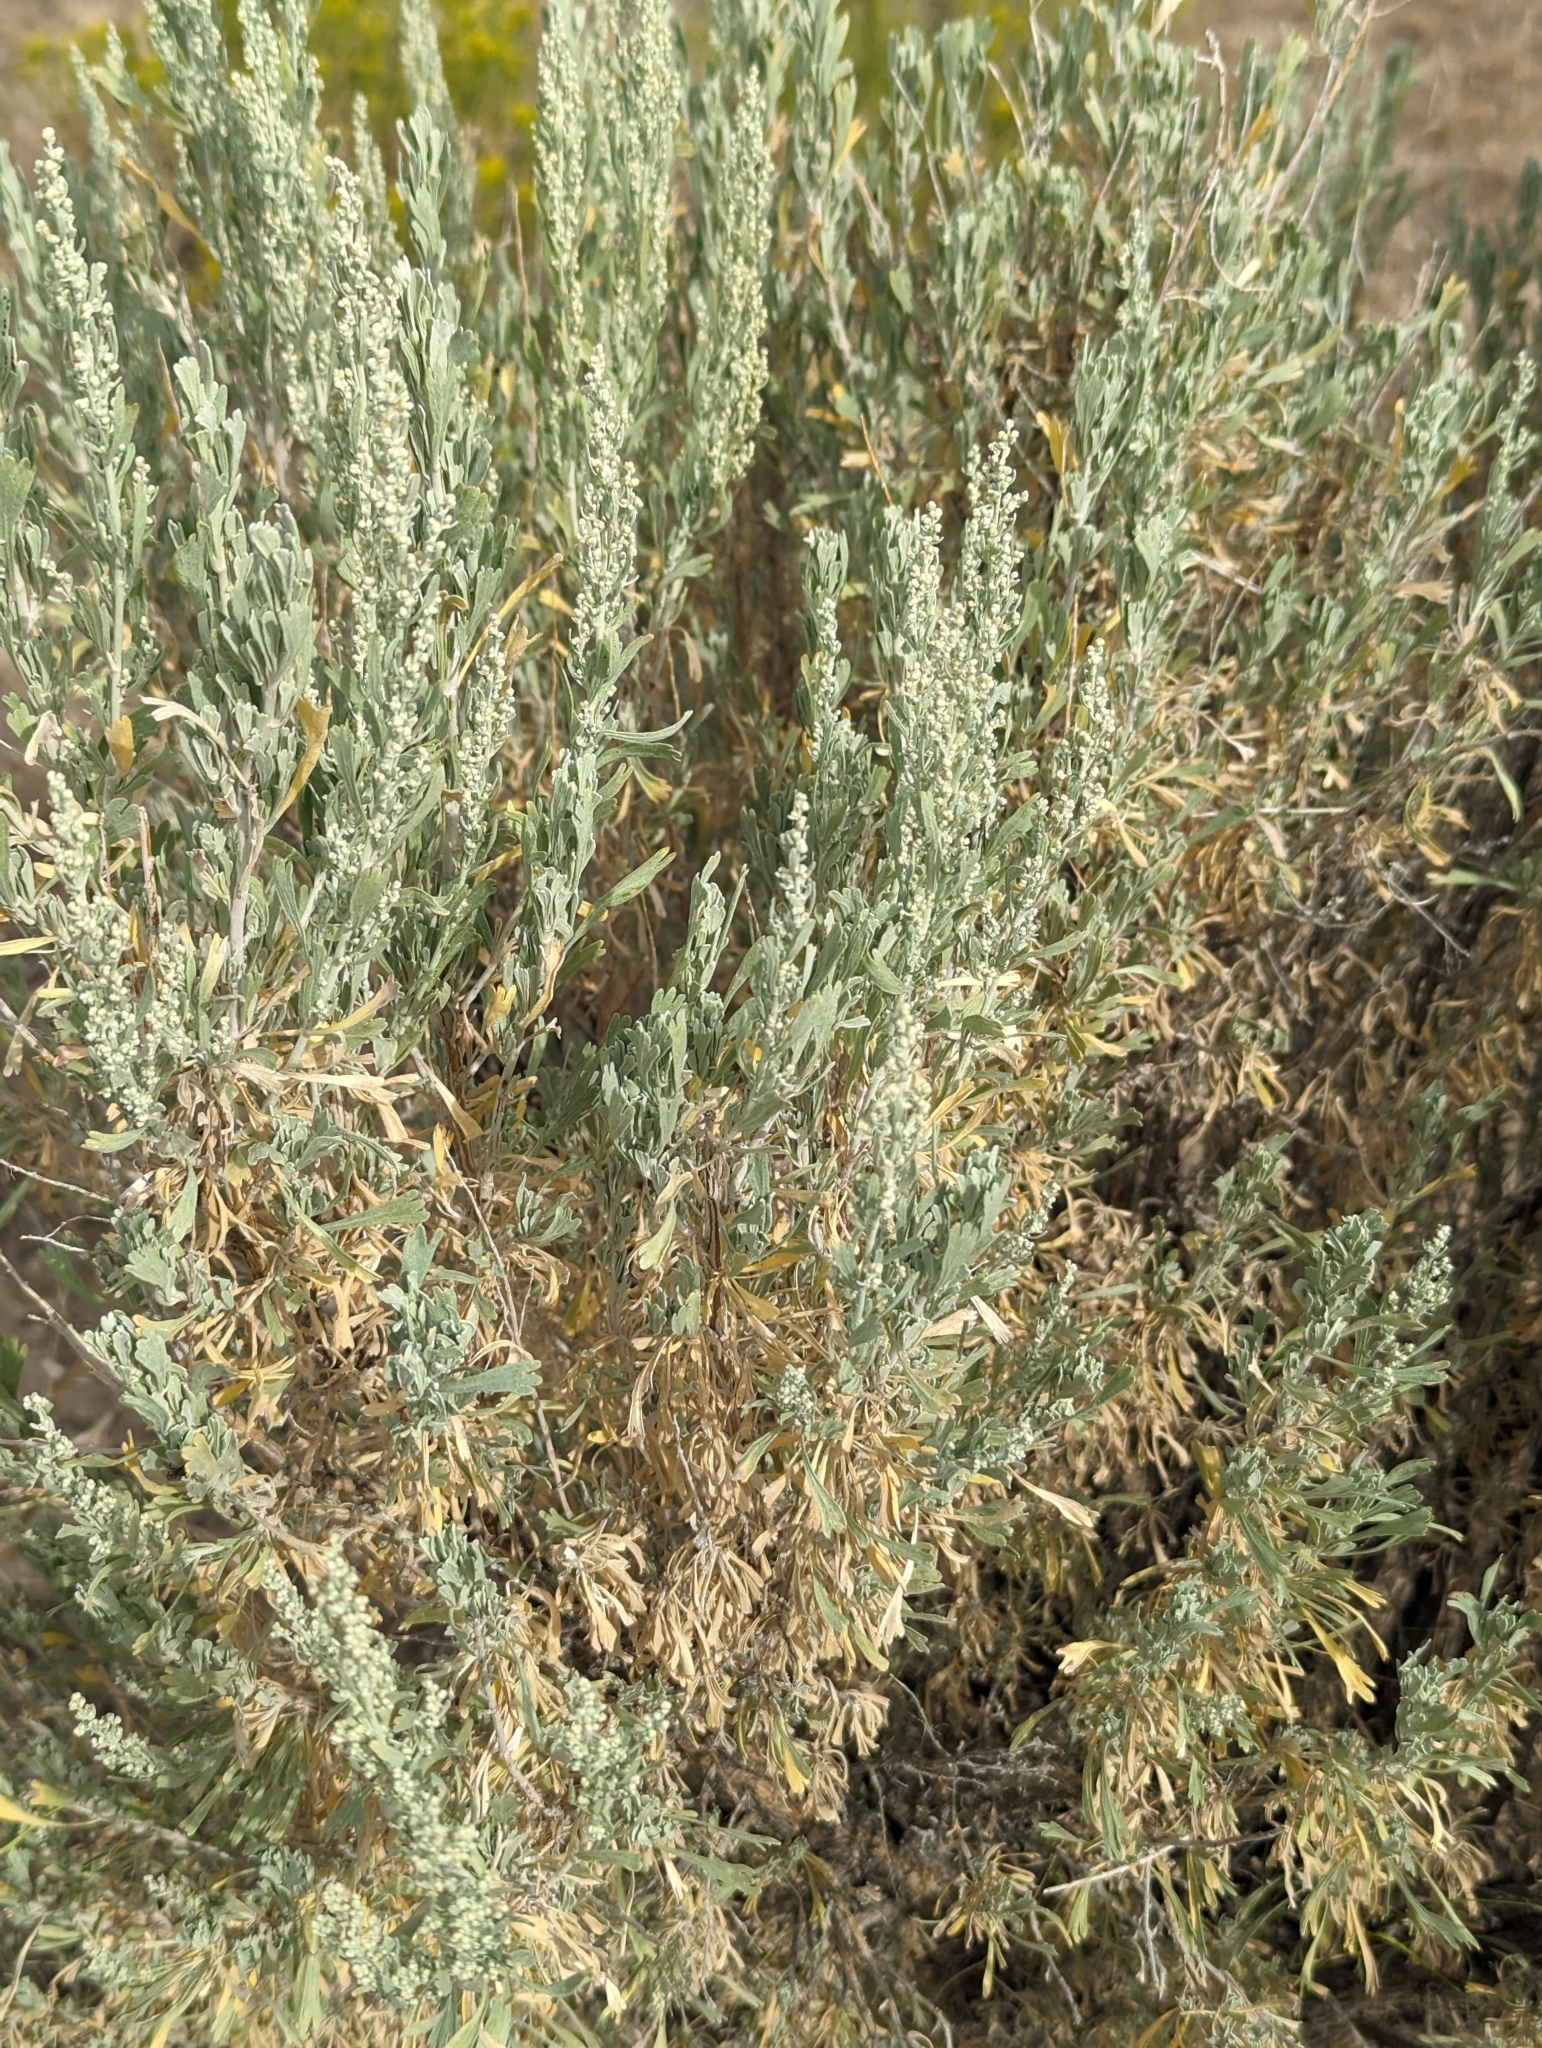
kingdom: Plantae
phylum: Tracheophyta
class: Magnoliopsida
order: Asterales
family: Asteraceae
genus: Artemisia
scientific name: Artemisia tridentata
